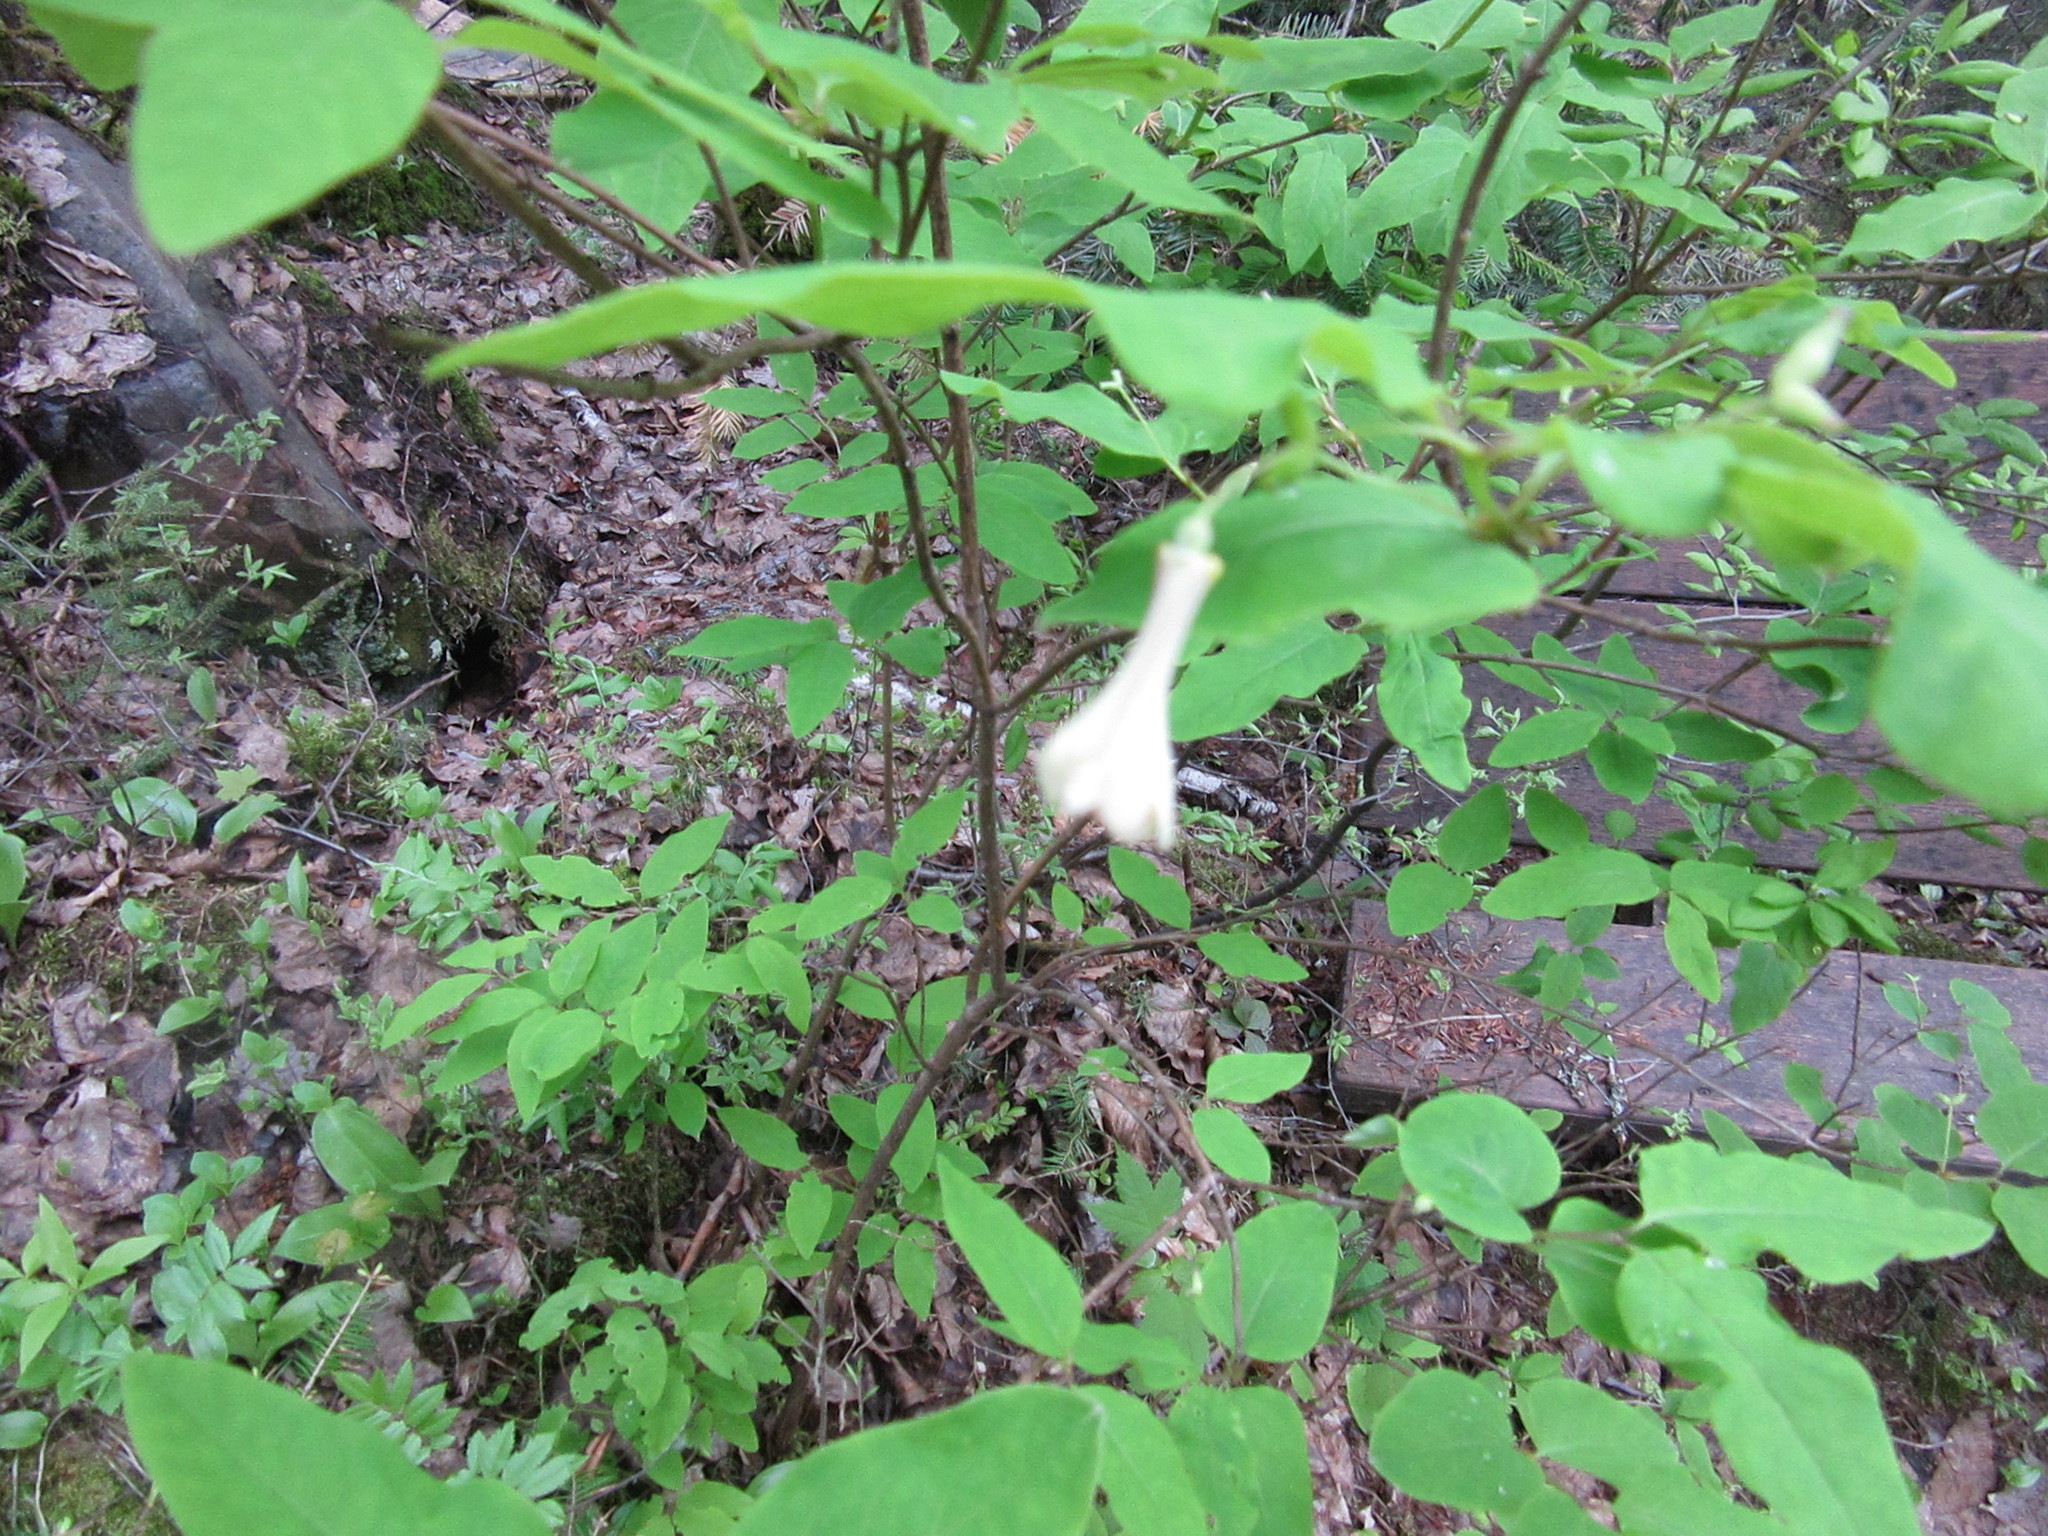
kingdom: Plantae
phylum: Tracheophyta
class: Magnoliopsida
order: Dipsacales
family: Caprifoliaceae
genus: Lonicera
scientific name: Lonicera canadensis
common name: American fly-honeysuckle
